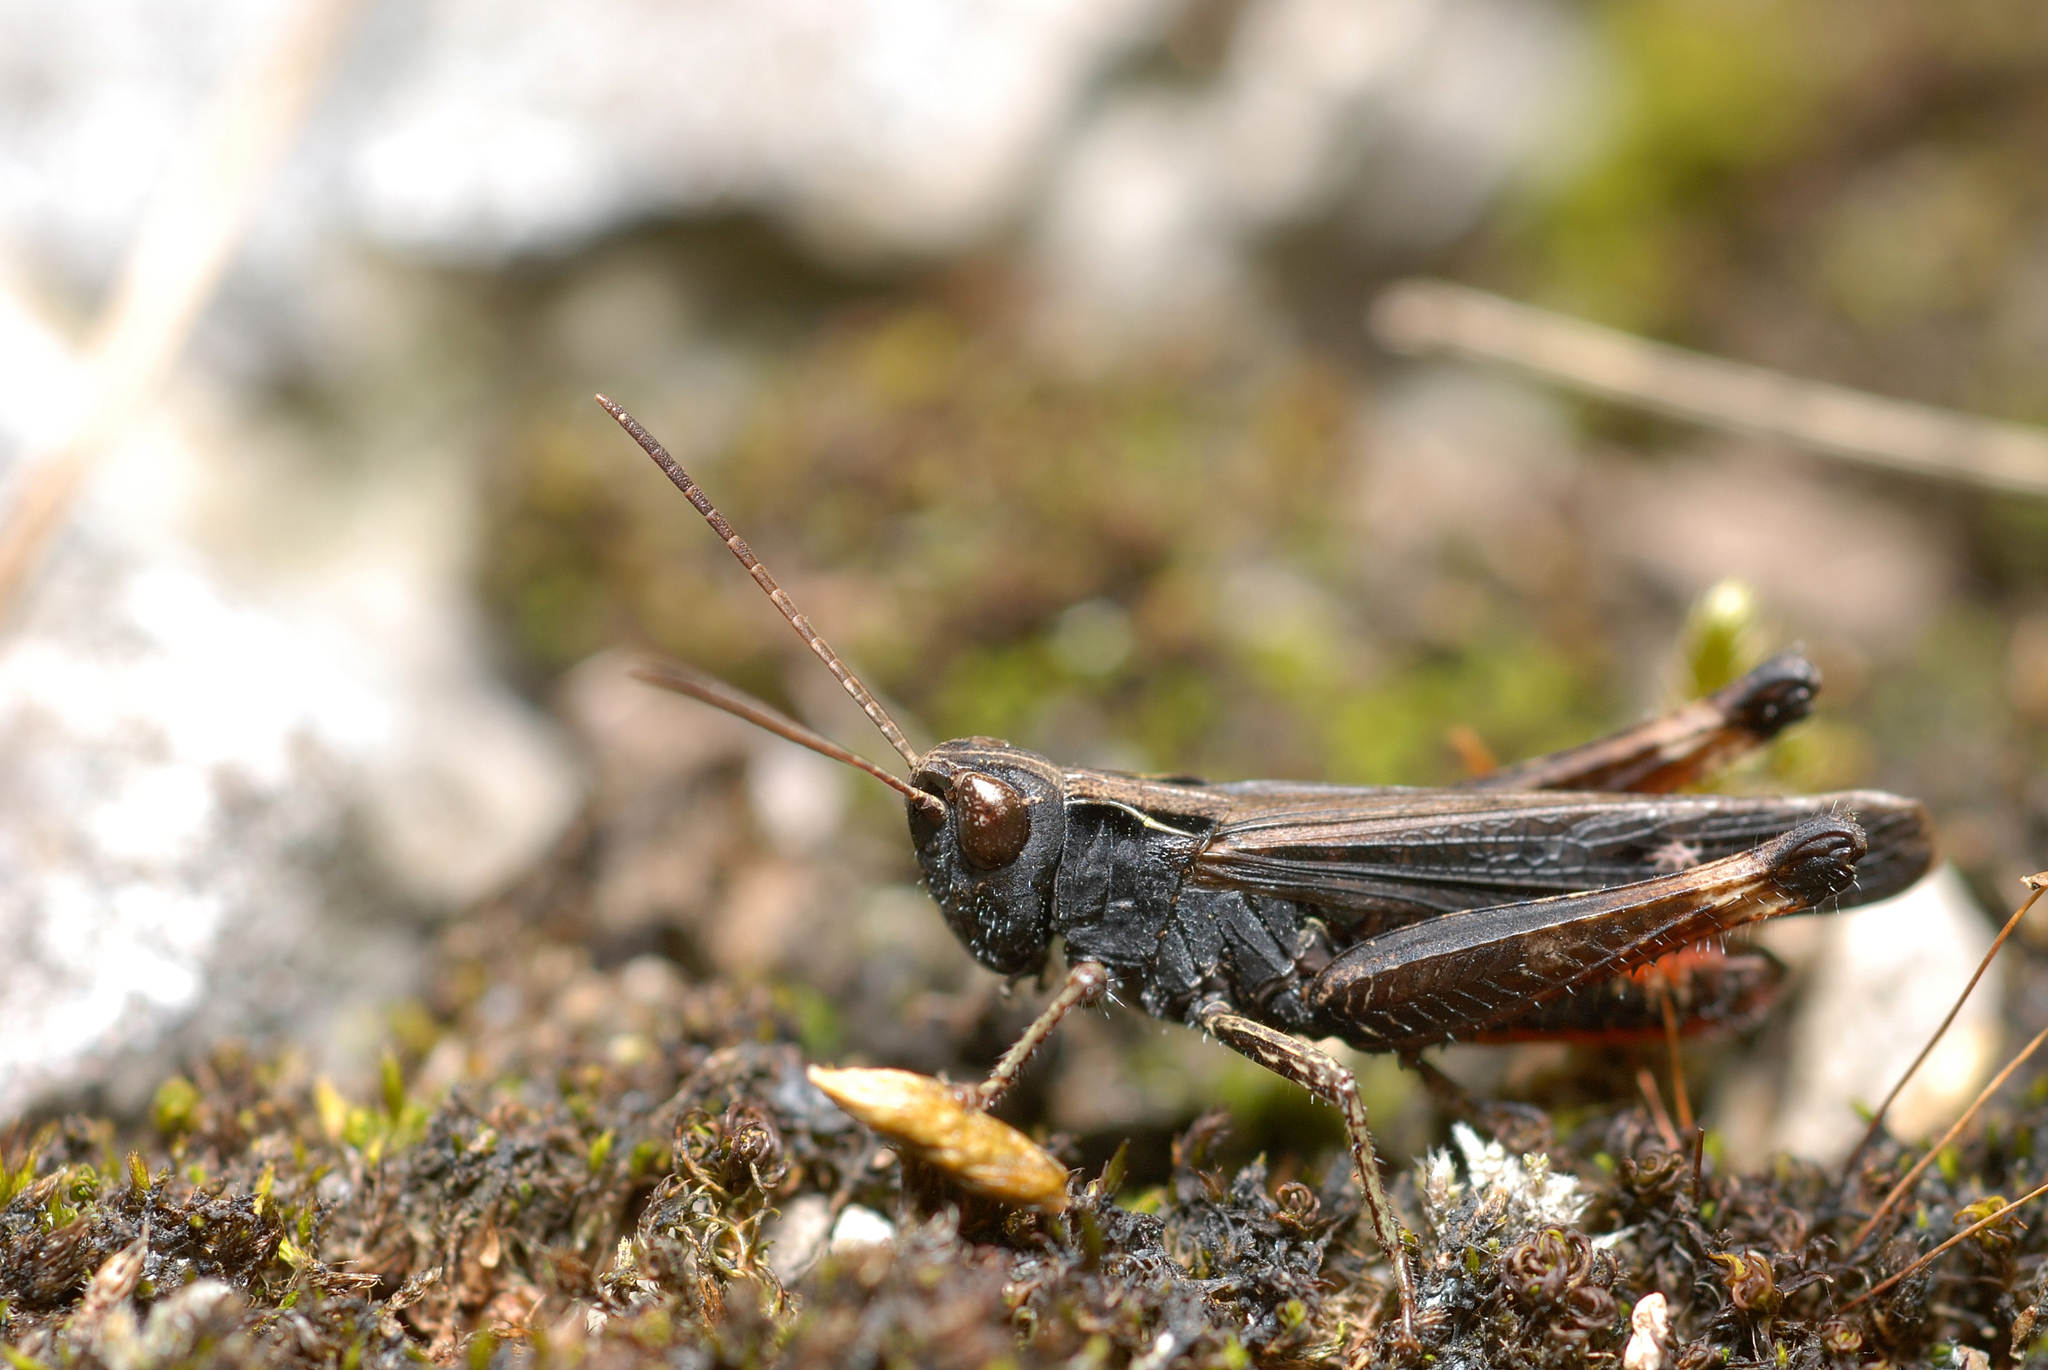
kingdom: Animalia
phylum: Arthropoda
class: Insecta
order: Orthoptera
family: Acrididae
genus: Omocestus
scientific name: Omocestus rufipes
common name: Woodland grasshopper
